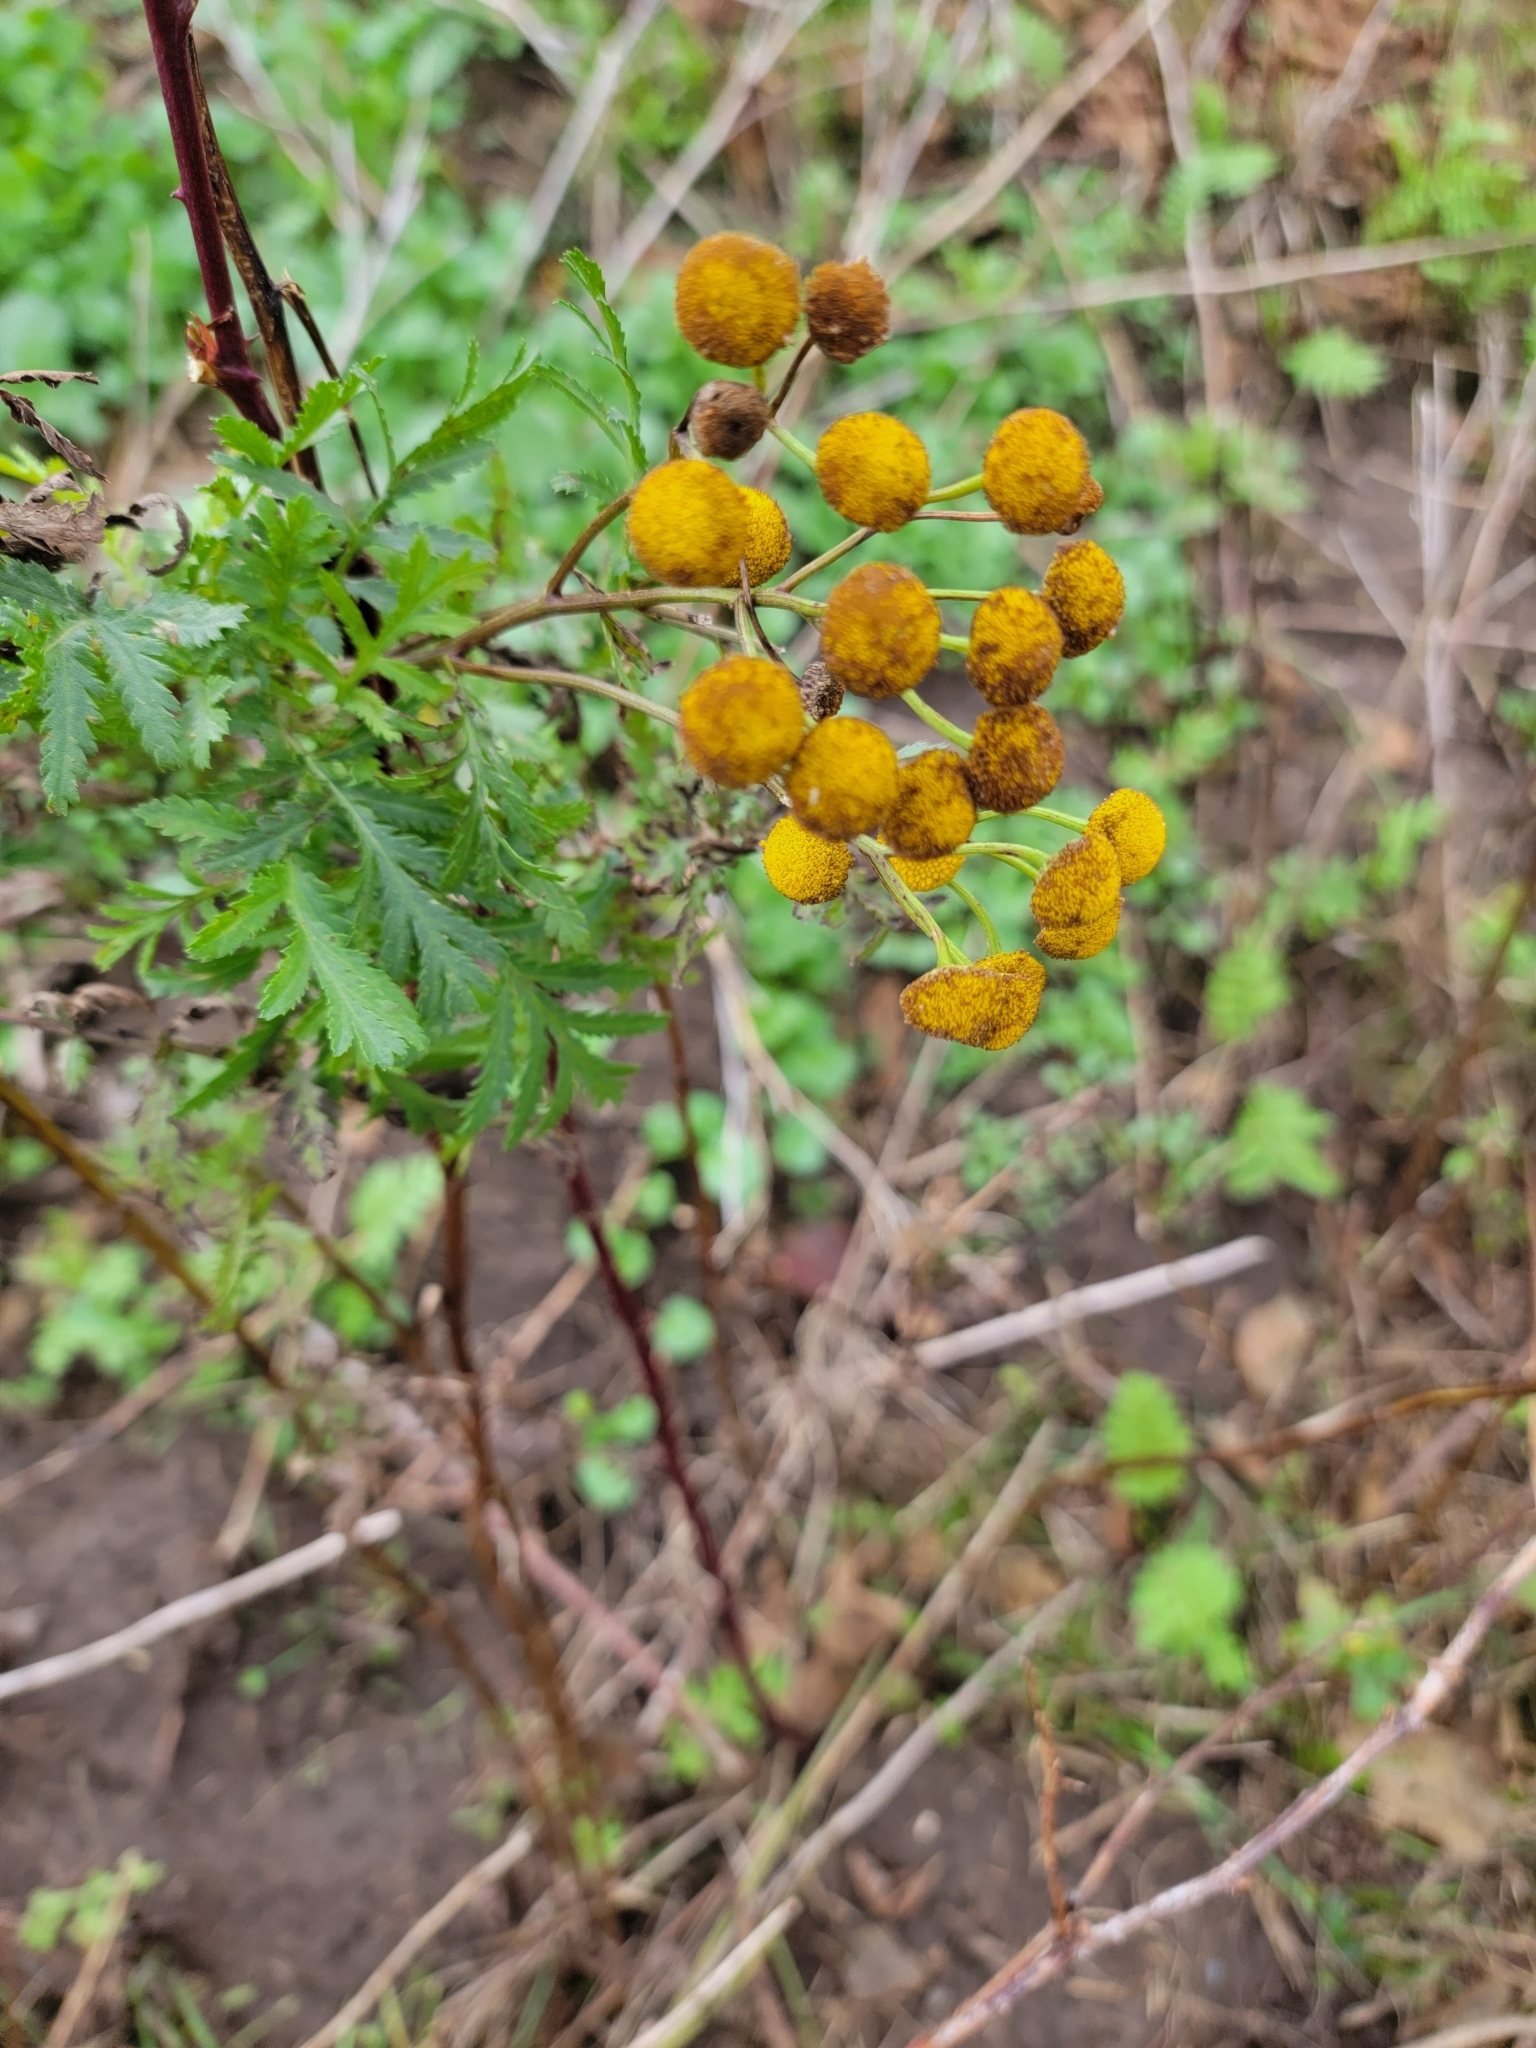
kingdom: Plantae
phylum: Tracheophyta
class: Magnoliopsida
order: Asterales
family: Asteraceae
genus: Tanacetum
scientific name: Tanacetum vulgare
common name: Common tansy
